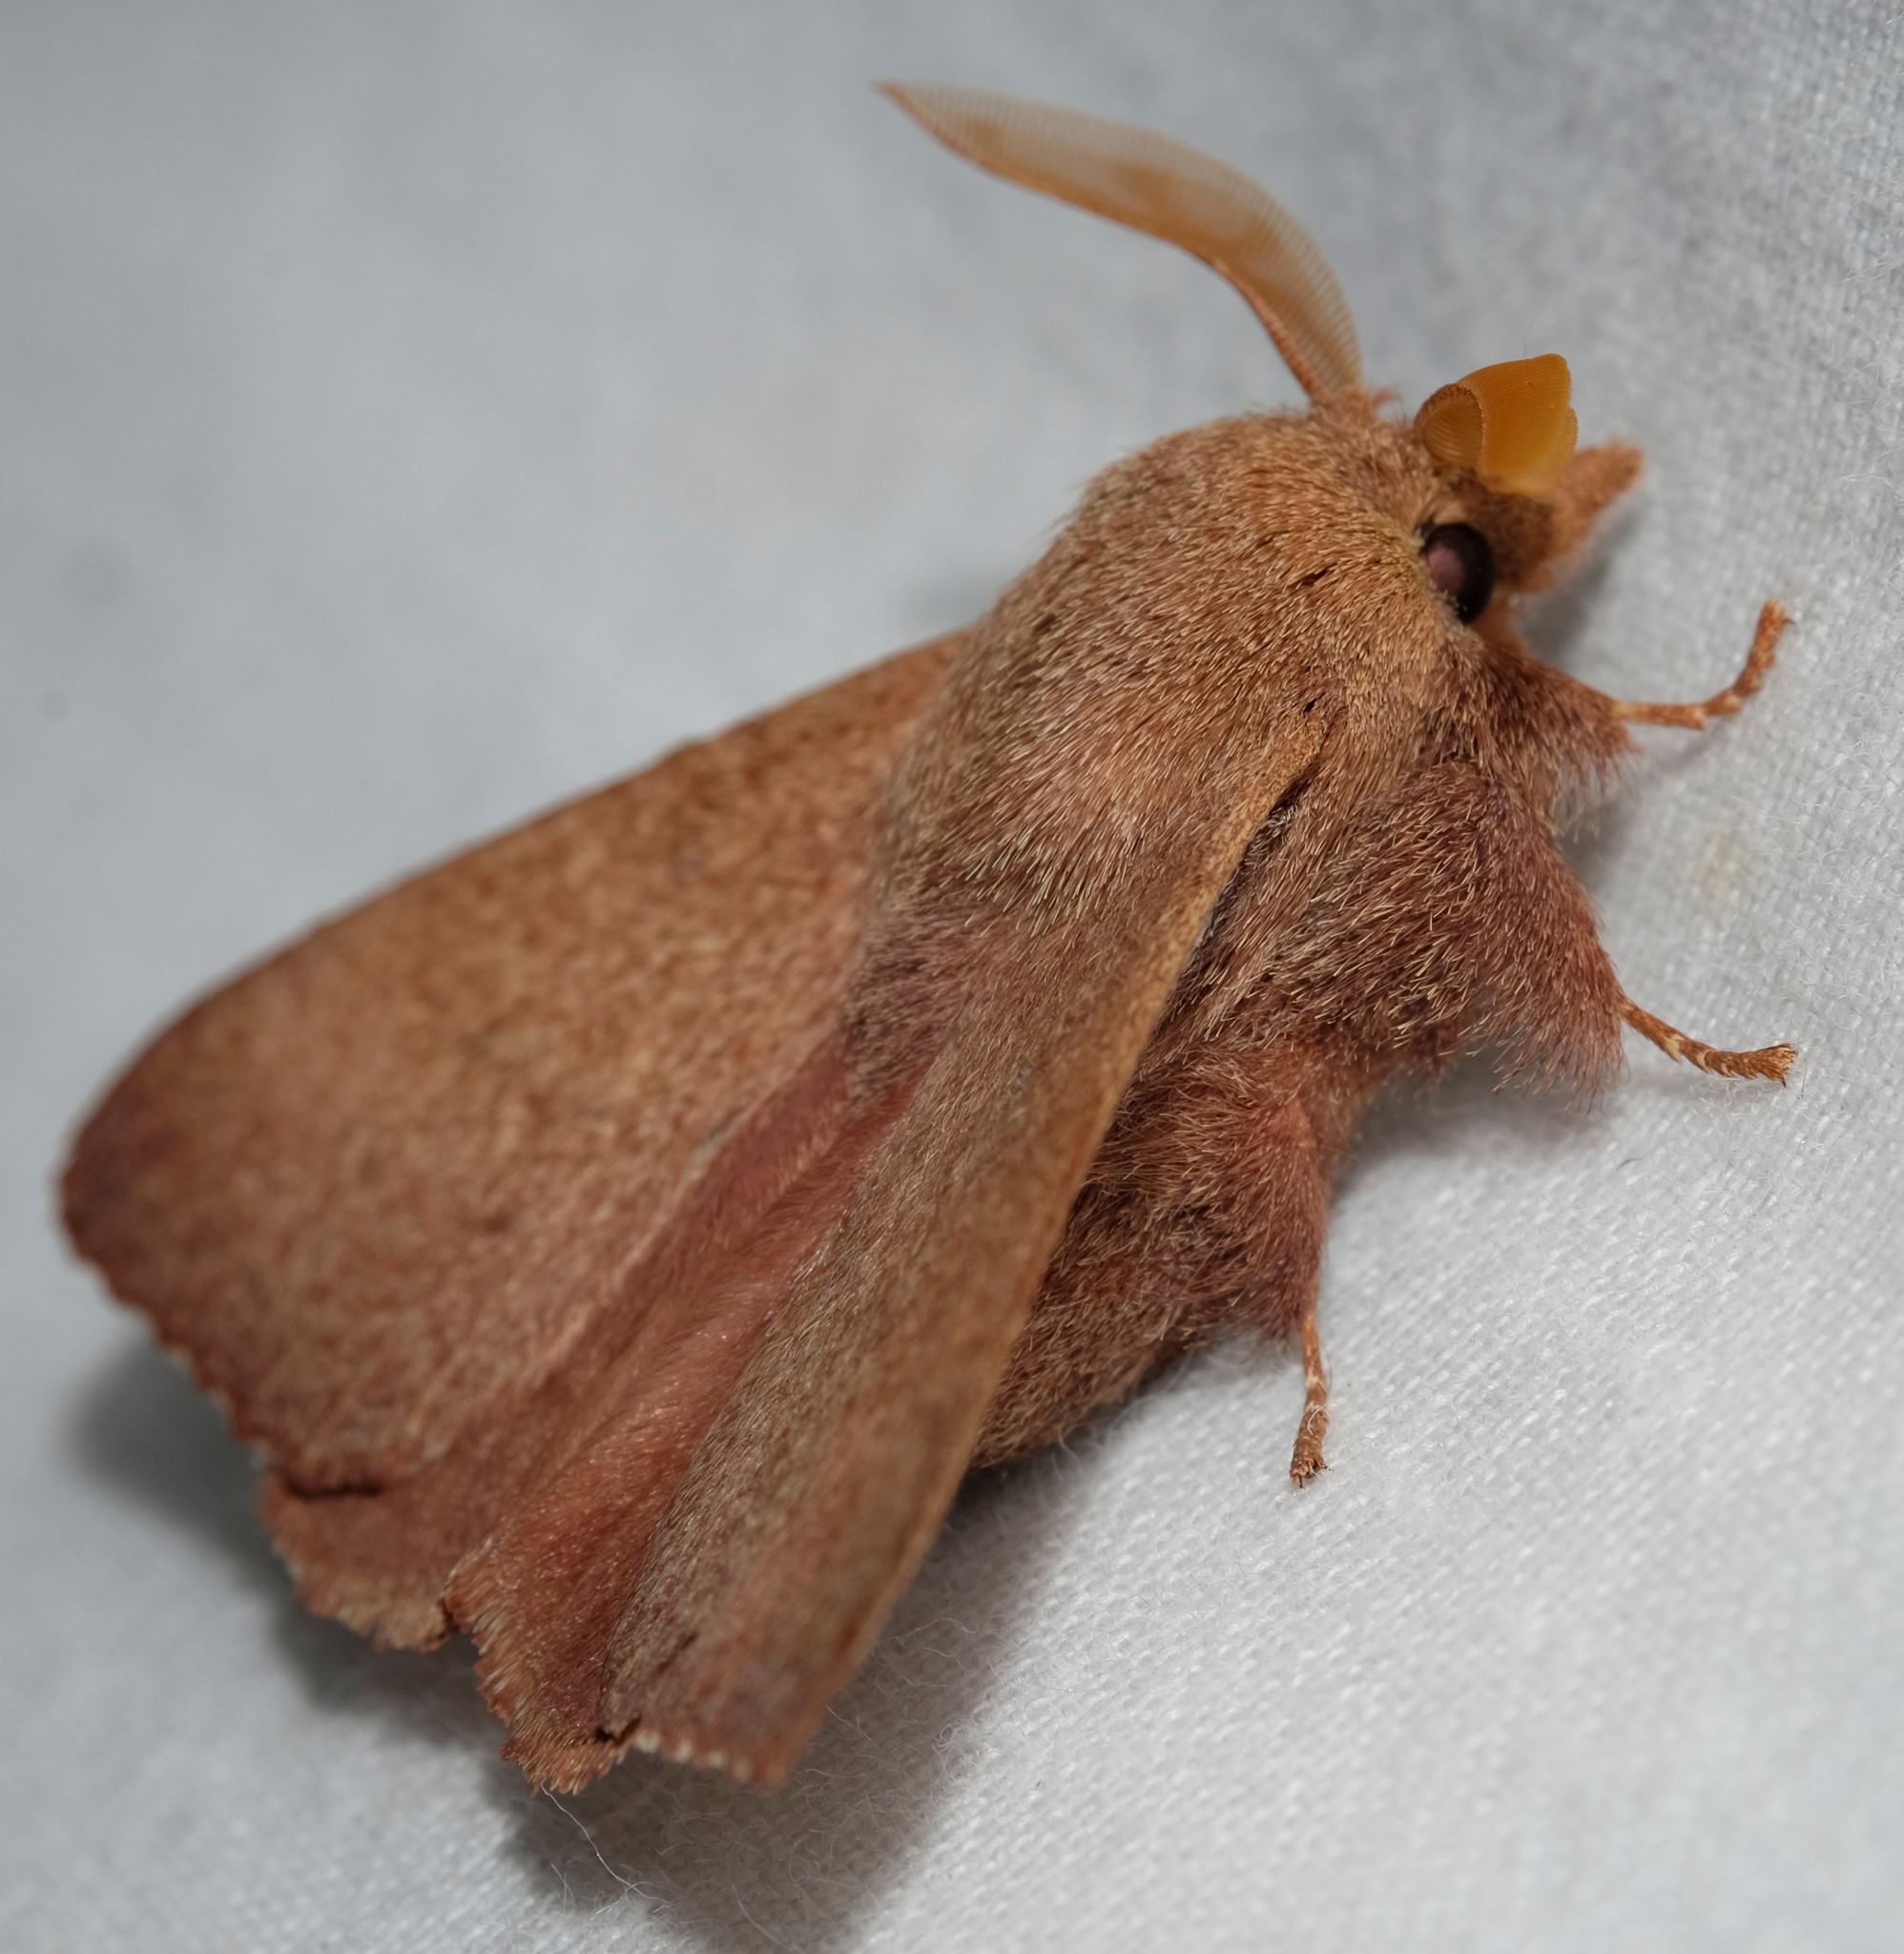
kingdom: Animalia
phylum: Arthropoda
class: Insecta
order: Lepidoptera
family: Lasiocampidae
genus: Pararguda
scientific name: Pararguda
